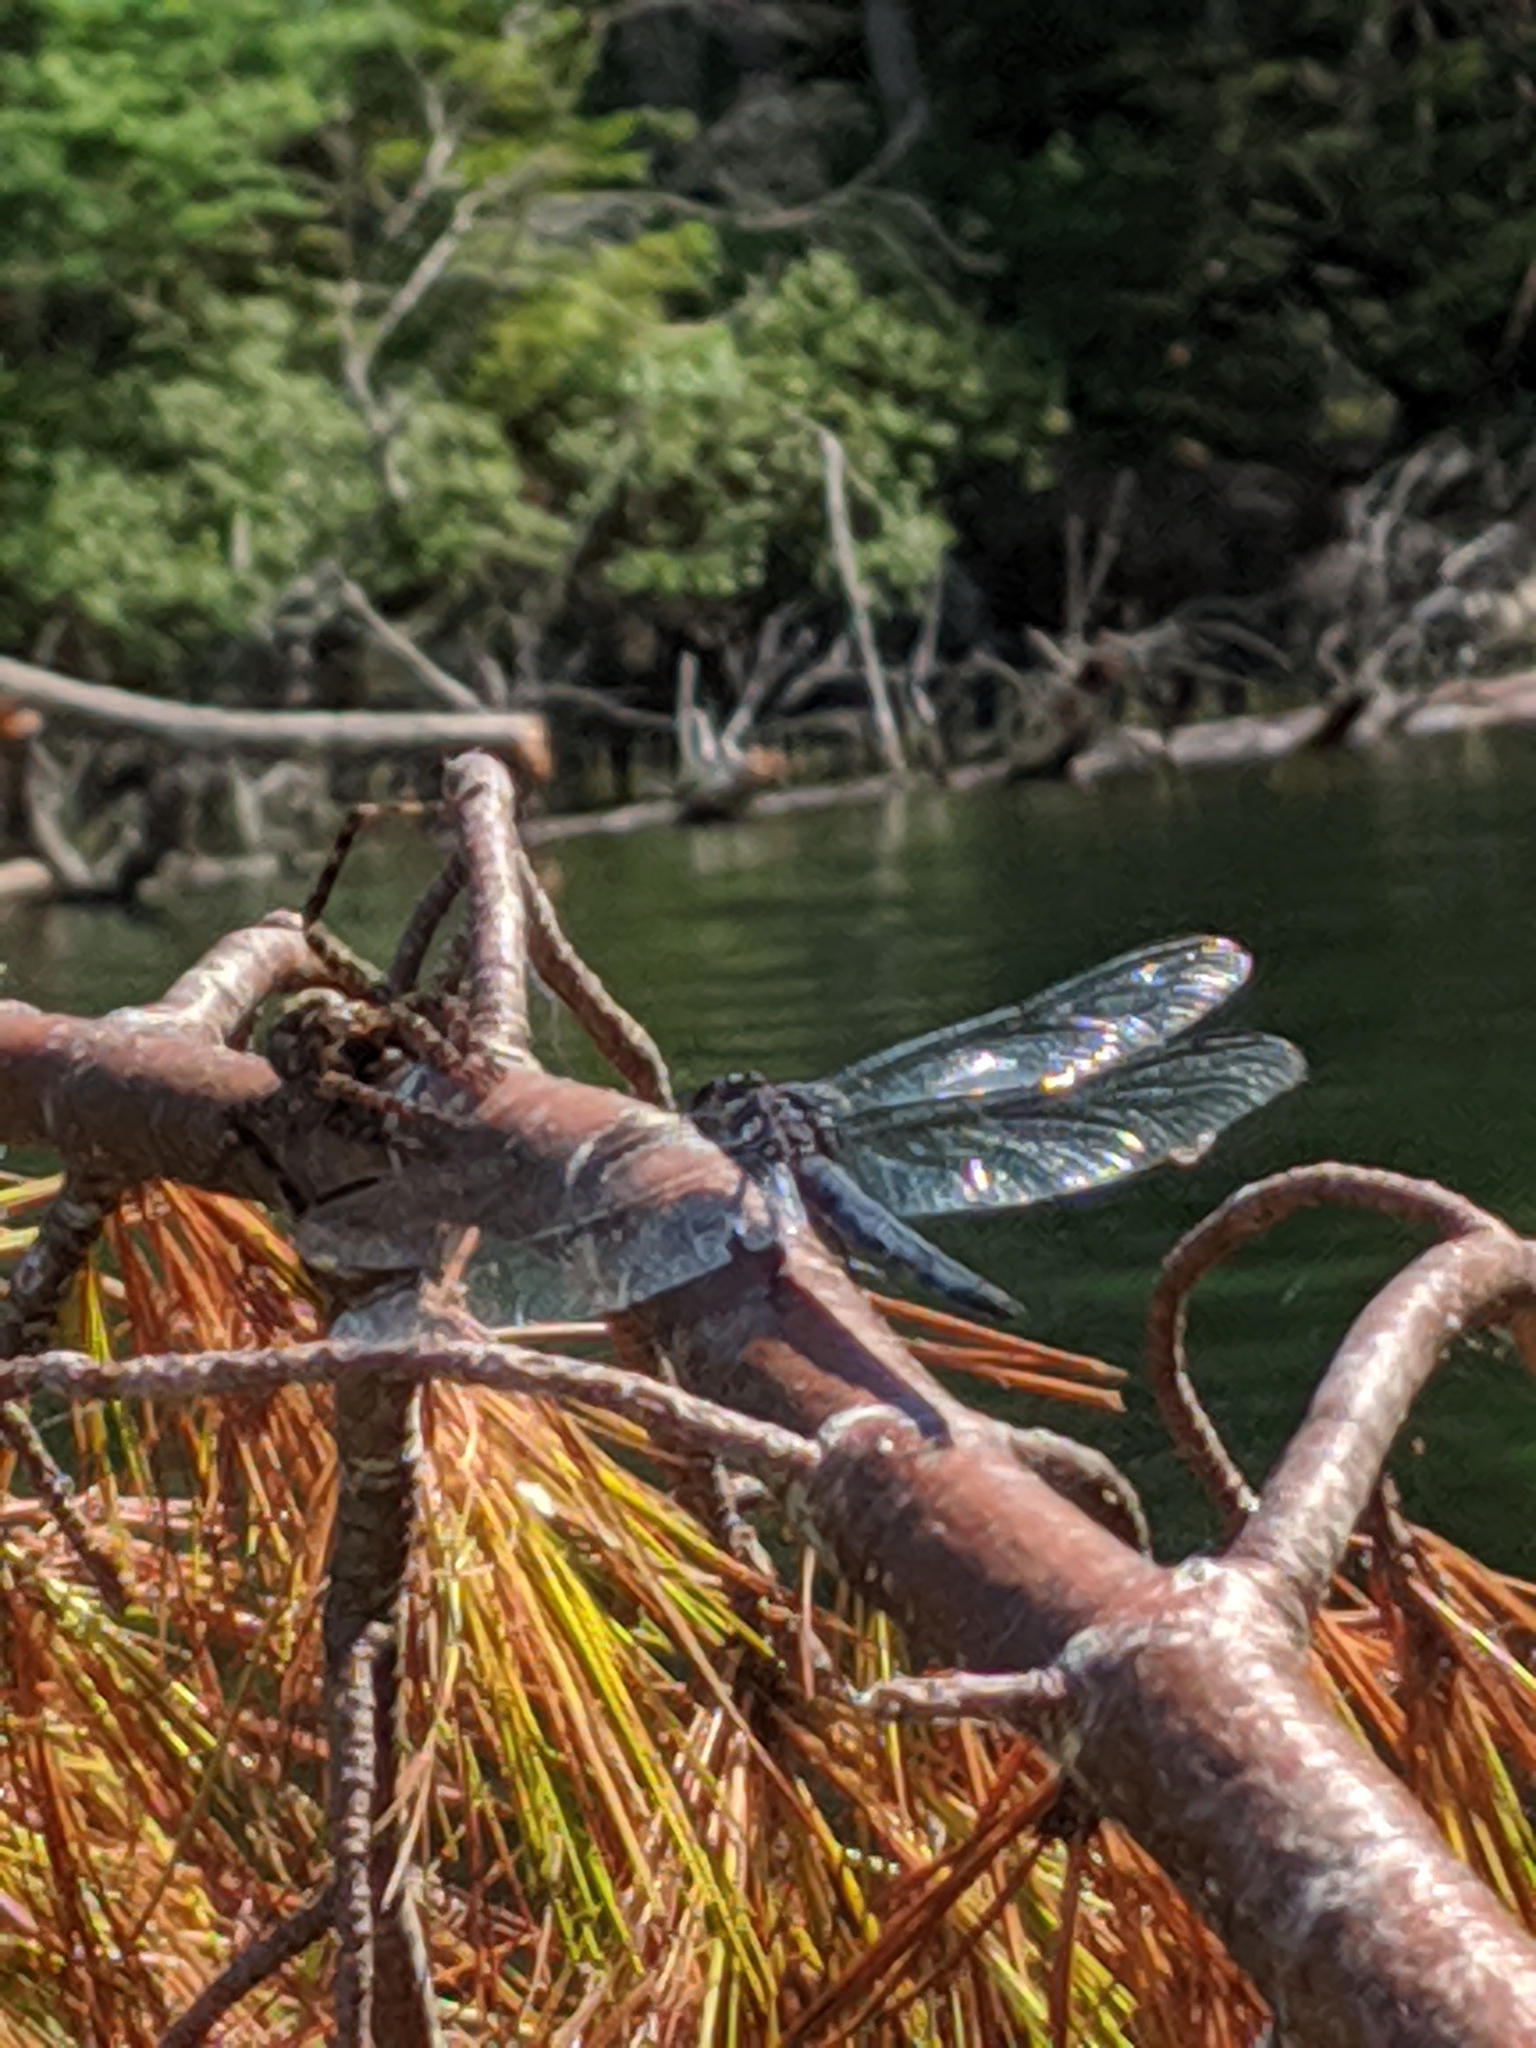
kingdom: Animalia
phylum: Arthropoda
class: Insecta
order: Odonata
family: Libellulidae
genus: Libellula
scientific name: Libellula incesta
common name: Slaty skimmer
